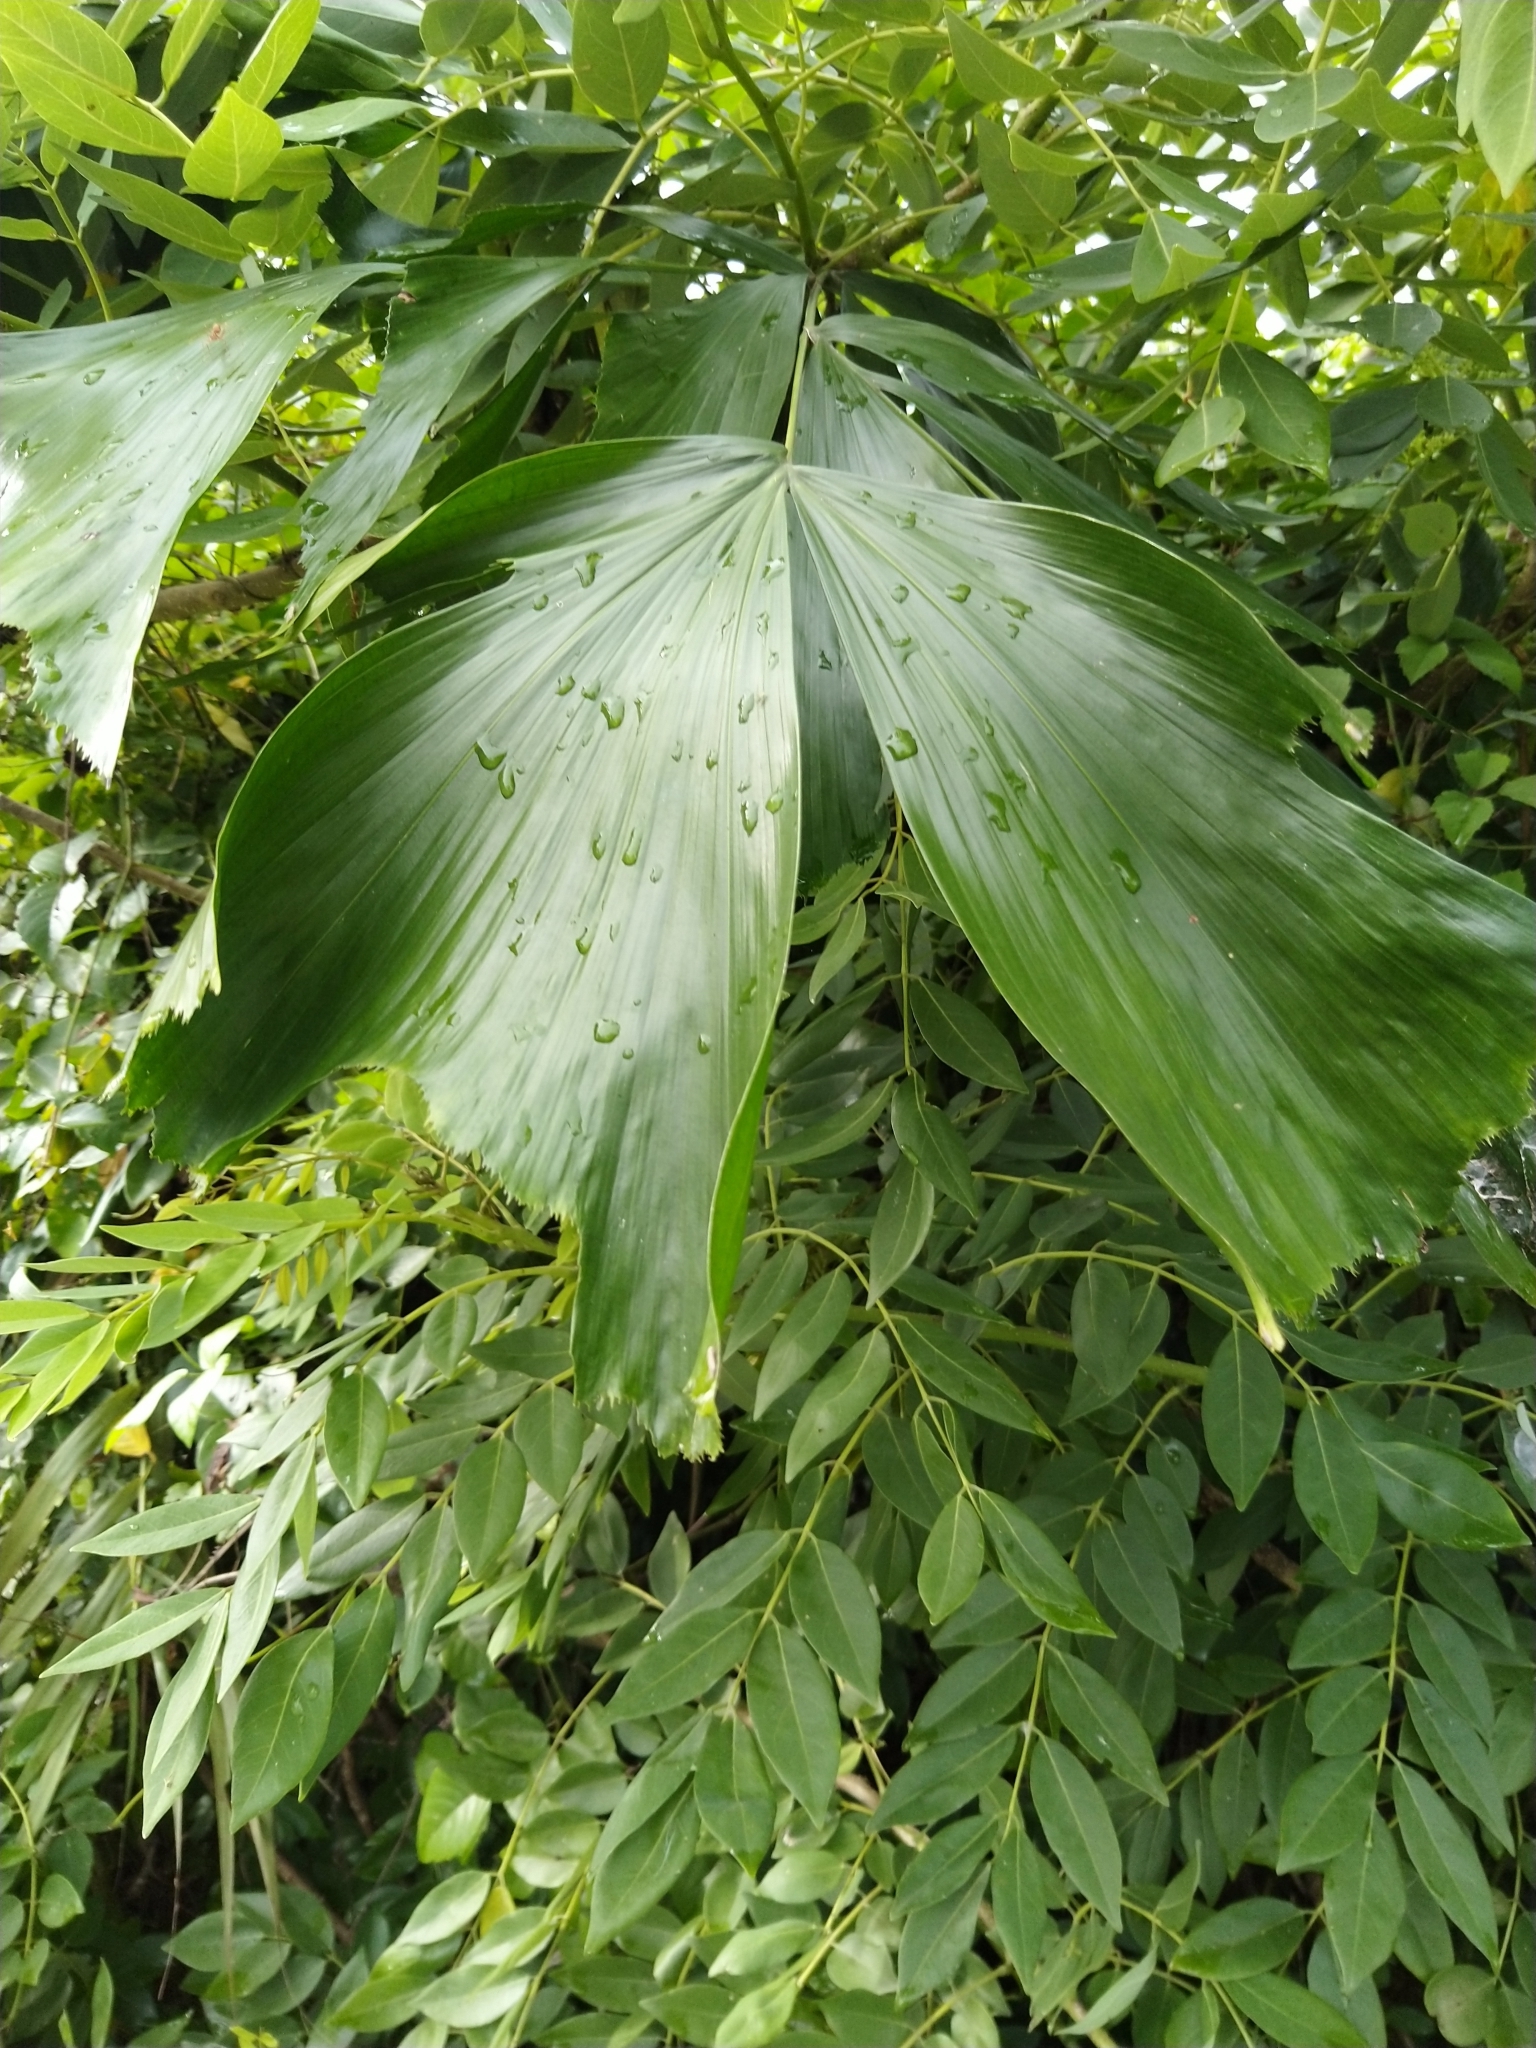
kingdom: Plantae
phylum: Tracheophyta
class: Liliopsida
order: Arecales
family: Arecaceae
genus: Caryota
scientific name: Caryota urens
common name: Jaggery palm
